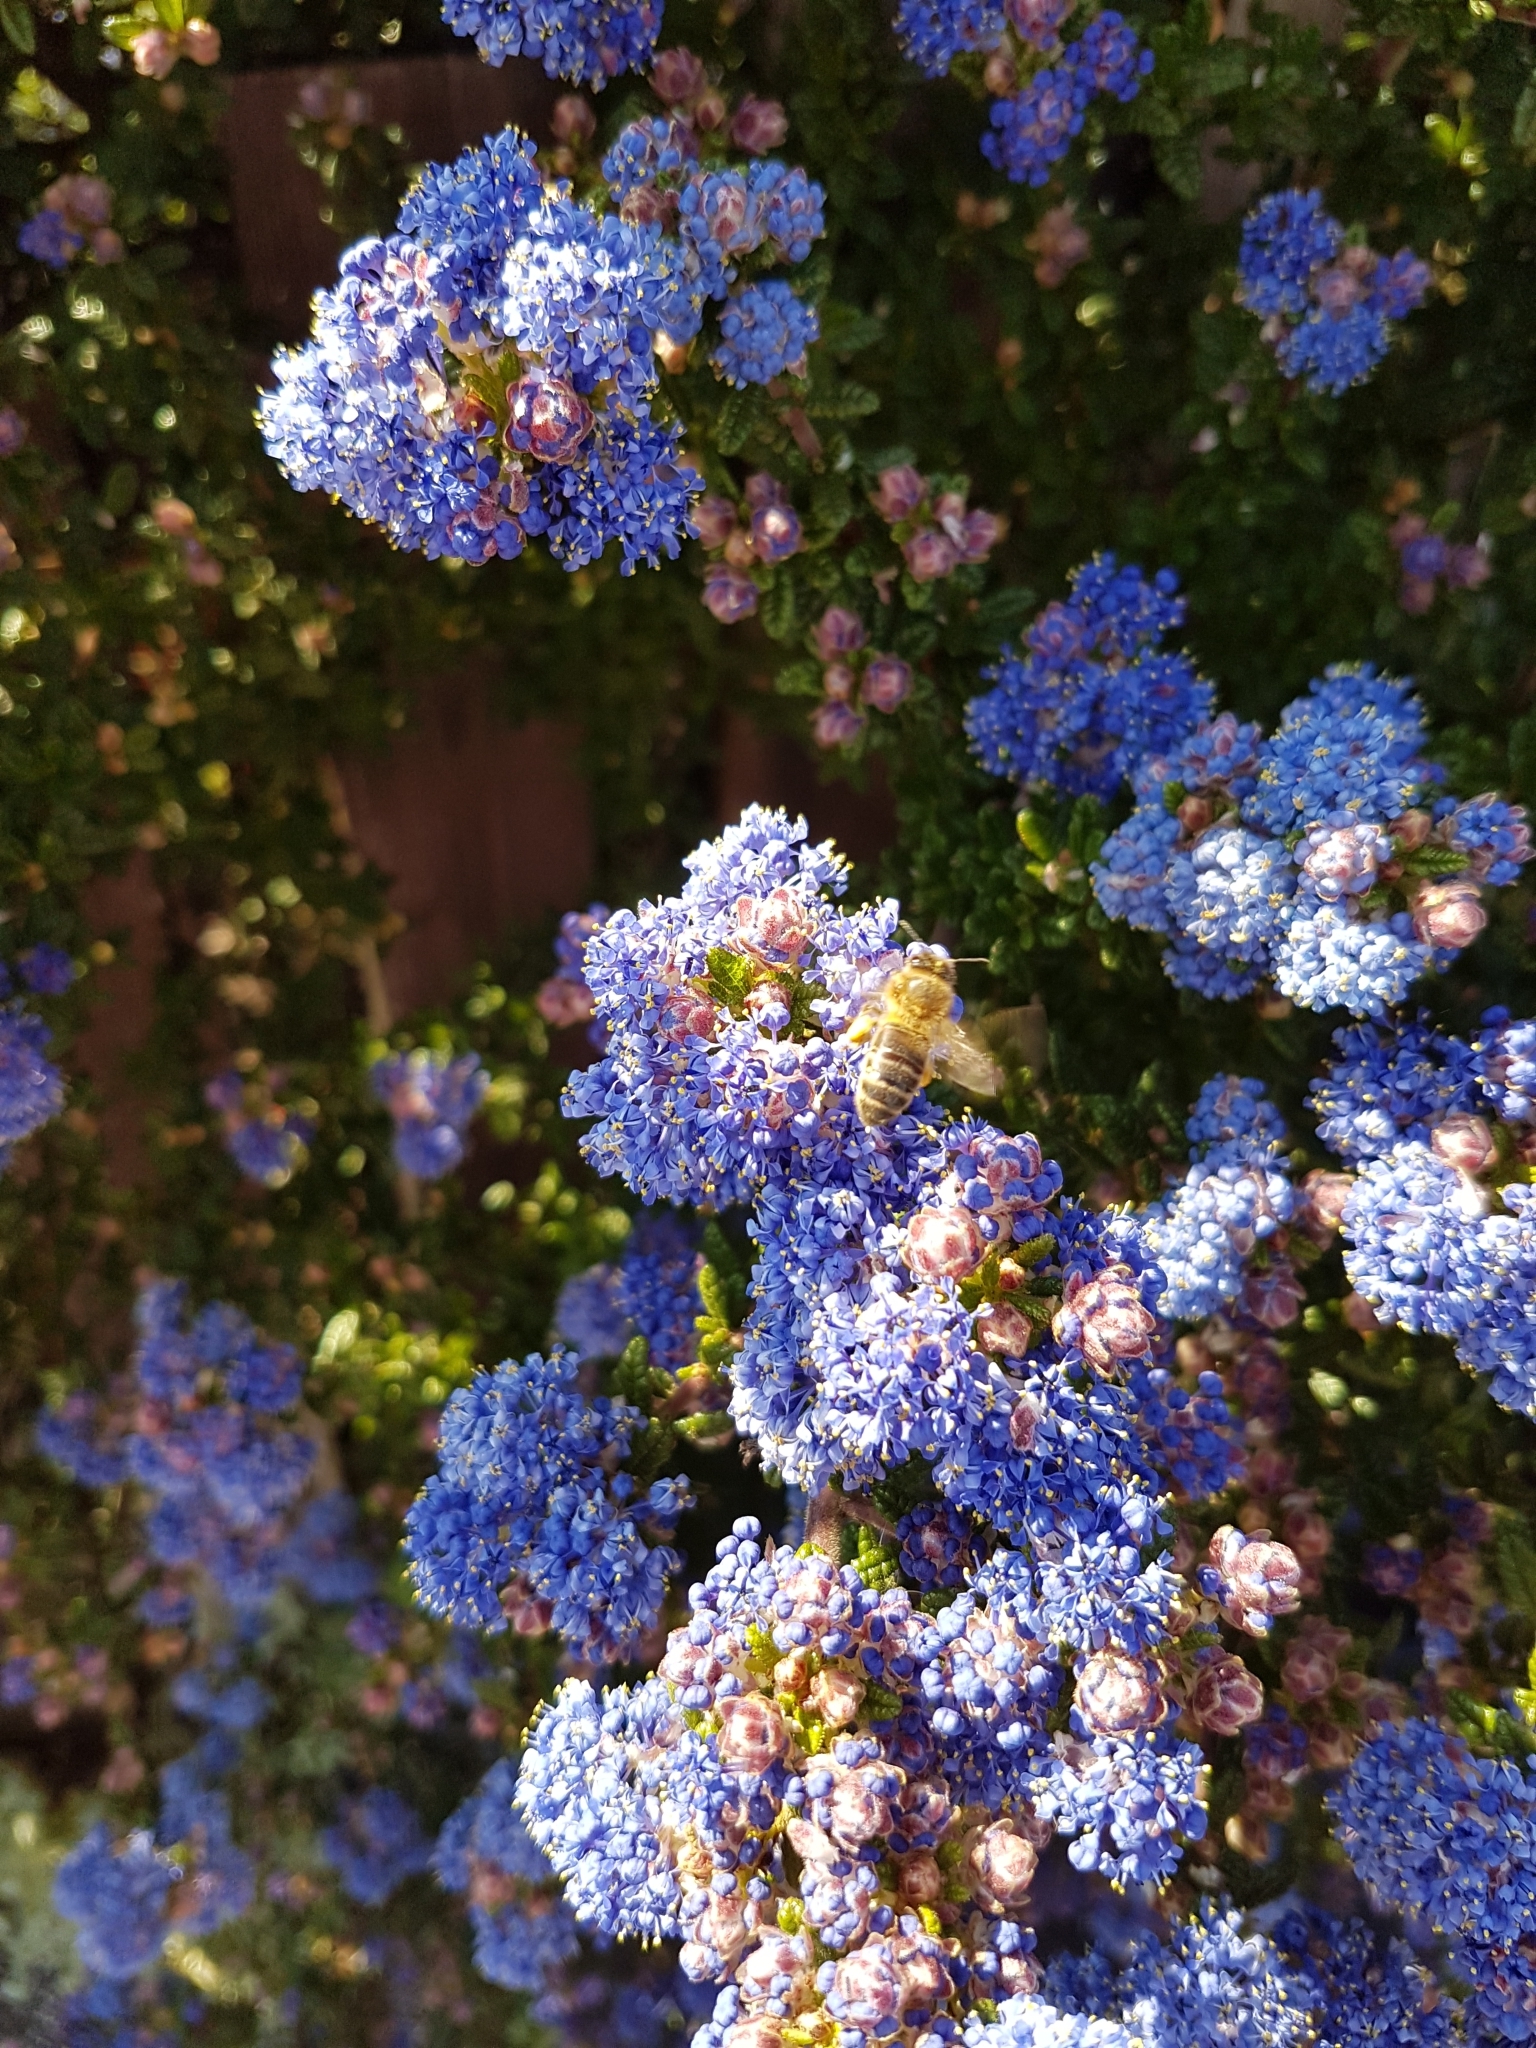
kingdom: Animalia
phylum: Arthropoda
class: Insecta
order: Hymenoptera
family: Apidae
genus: Apis
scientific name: Apis mellifera
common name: Honey bee
